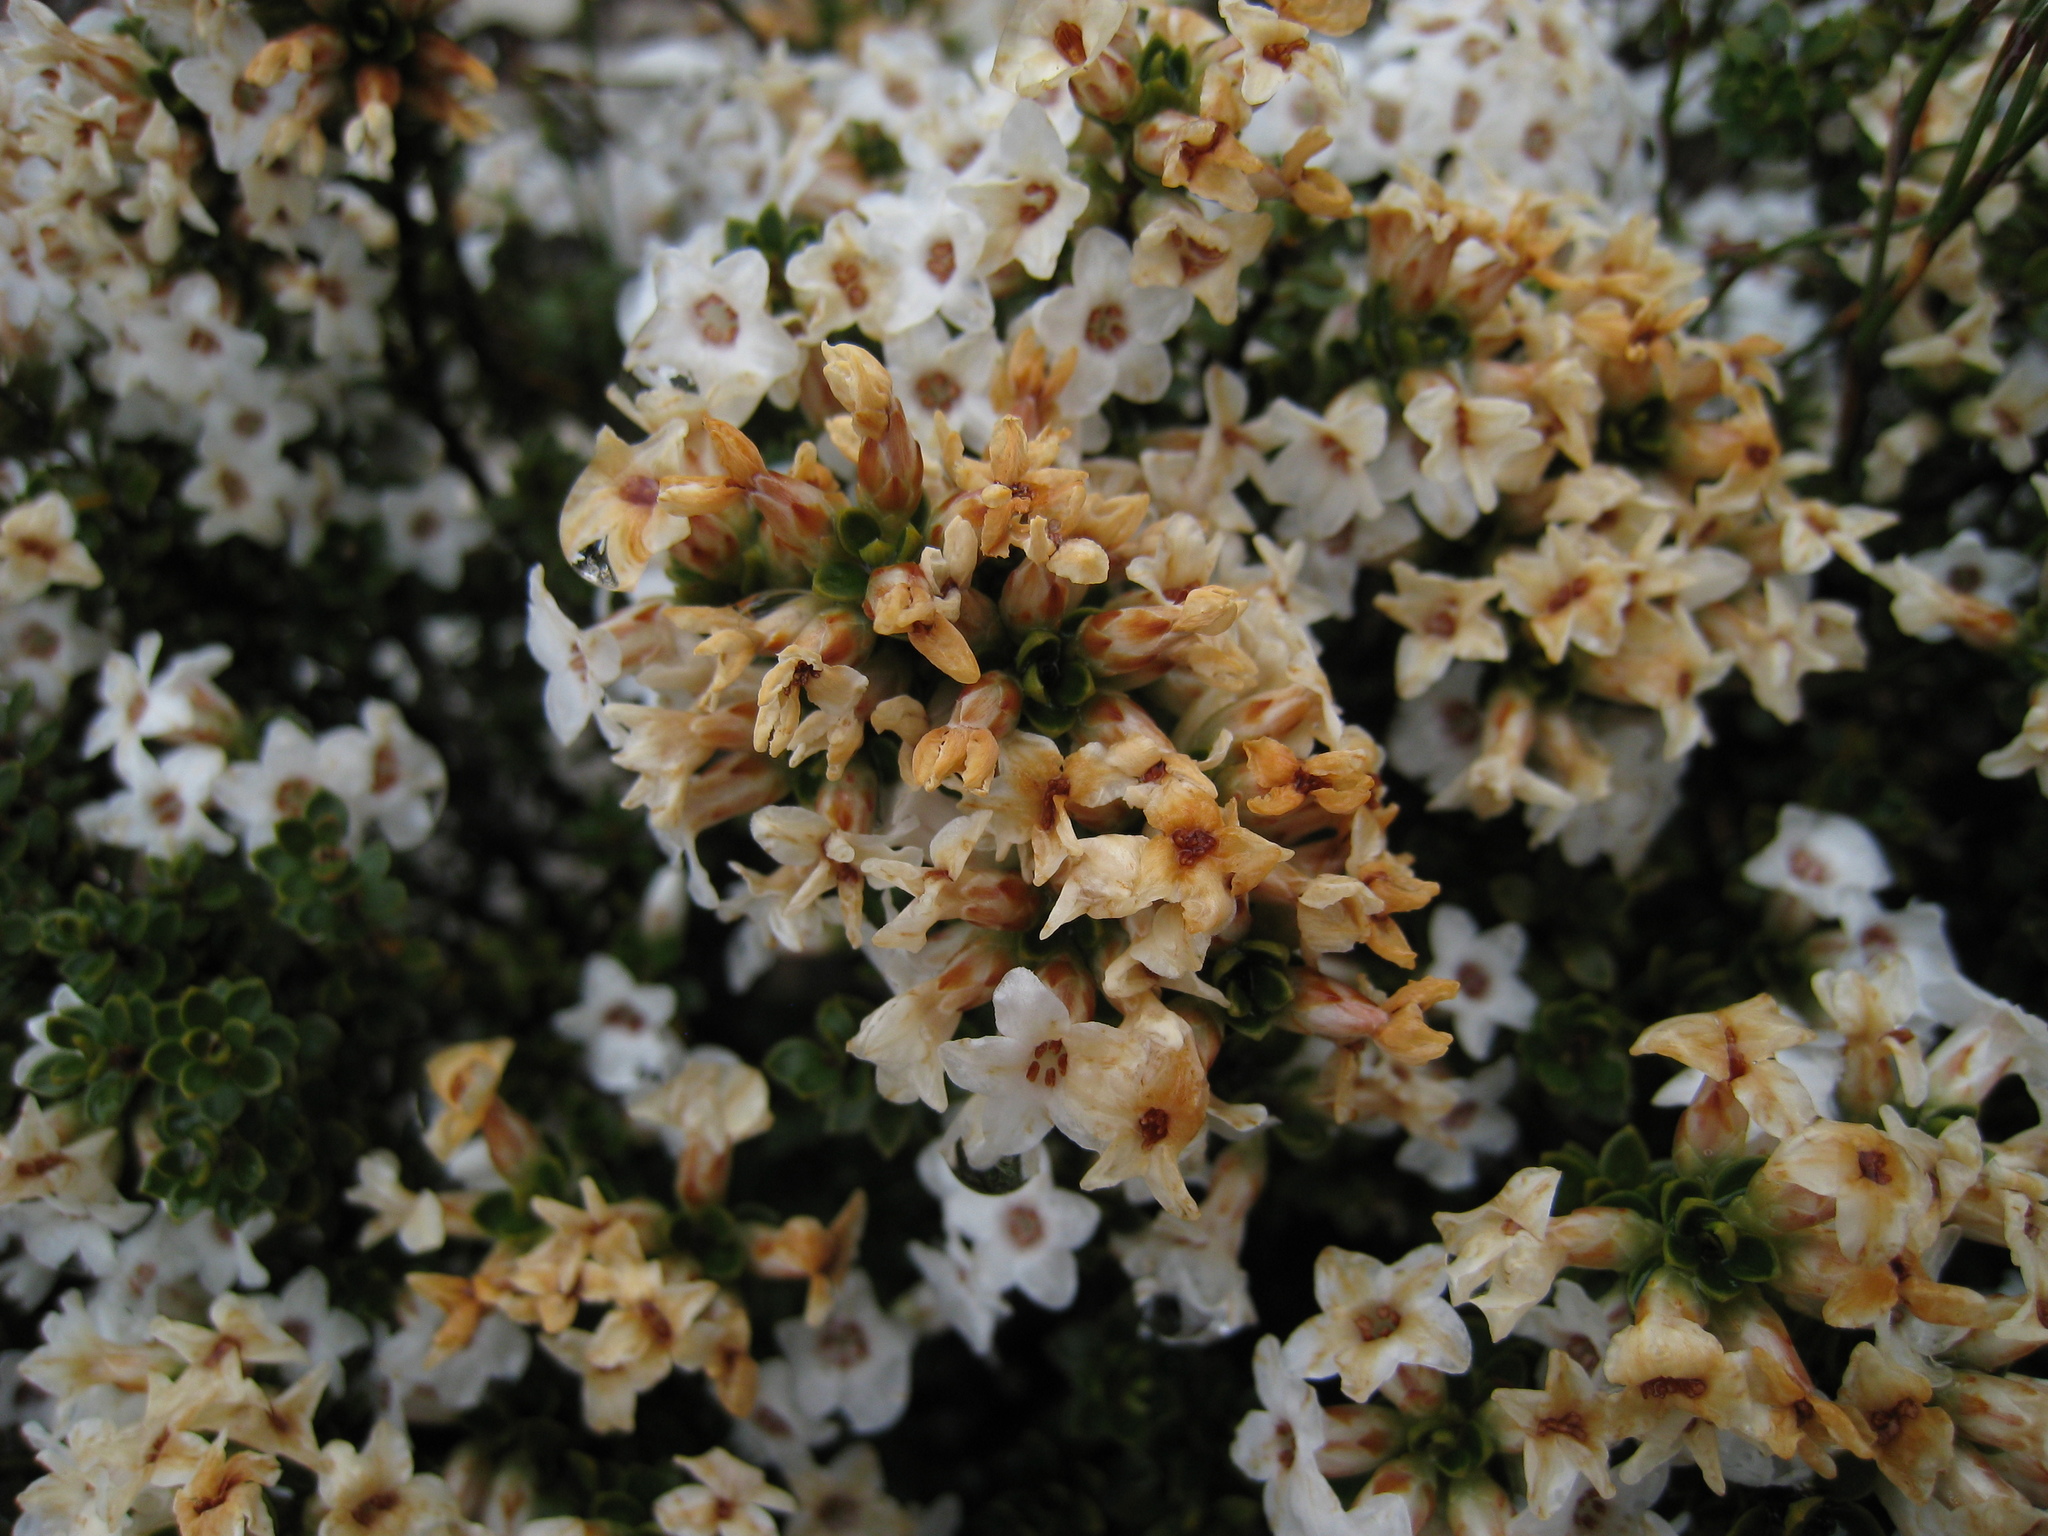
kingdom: Plantae
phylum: Tracheophyta
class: Magnoliopsida
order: Ericales
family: Ericaceae
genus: Epacris
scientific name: Epacris serpyllifolia
